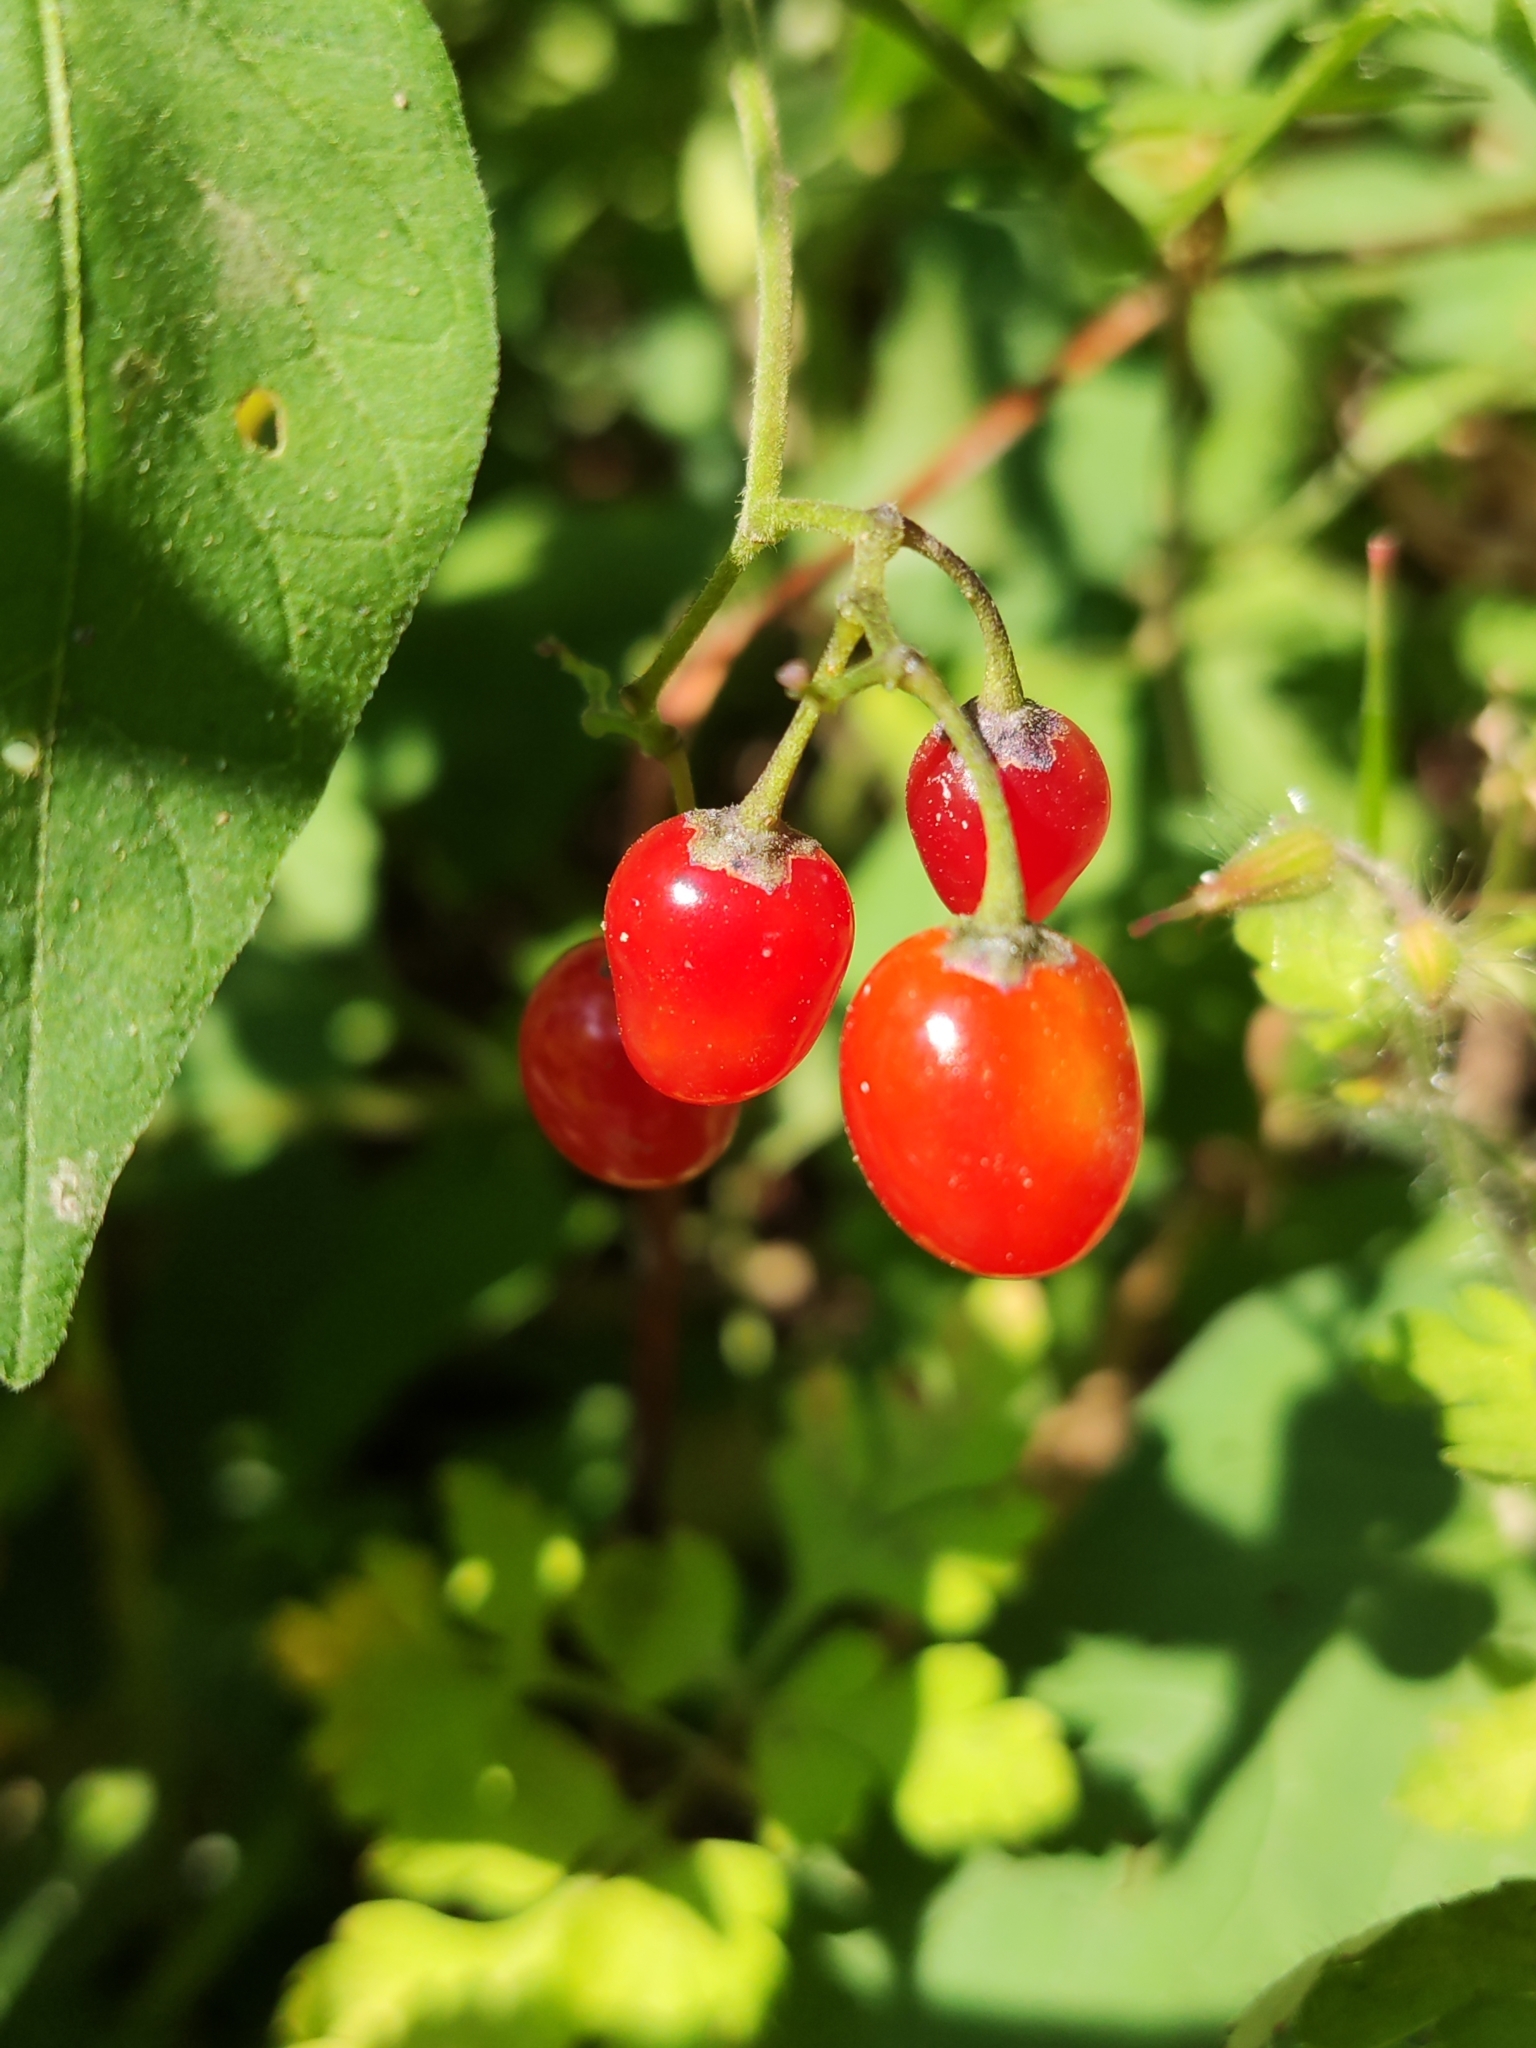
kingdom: Plantae
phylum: Tracheophyta
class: Magnoliopsida
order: Solanales
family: Solanaceae
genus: Solanum
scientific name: Solanum dulcamara
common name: Climbing nightshade
